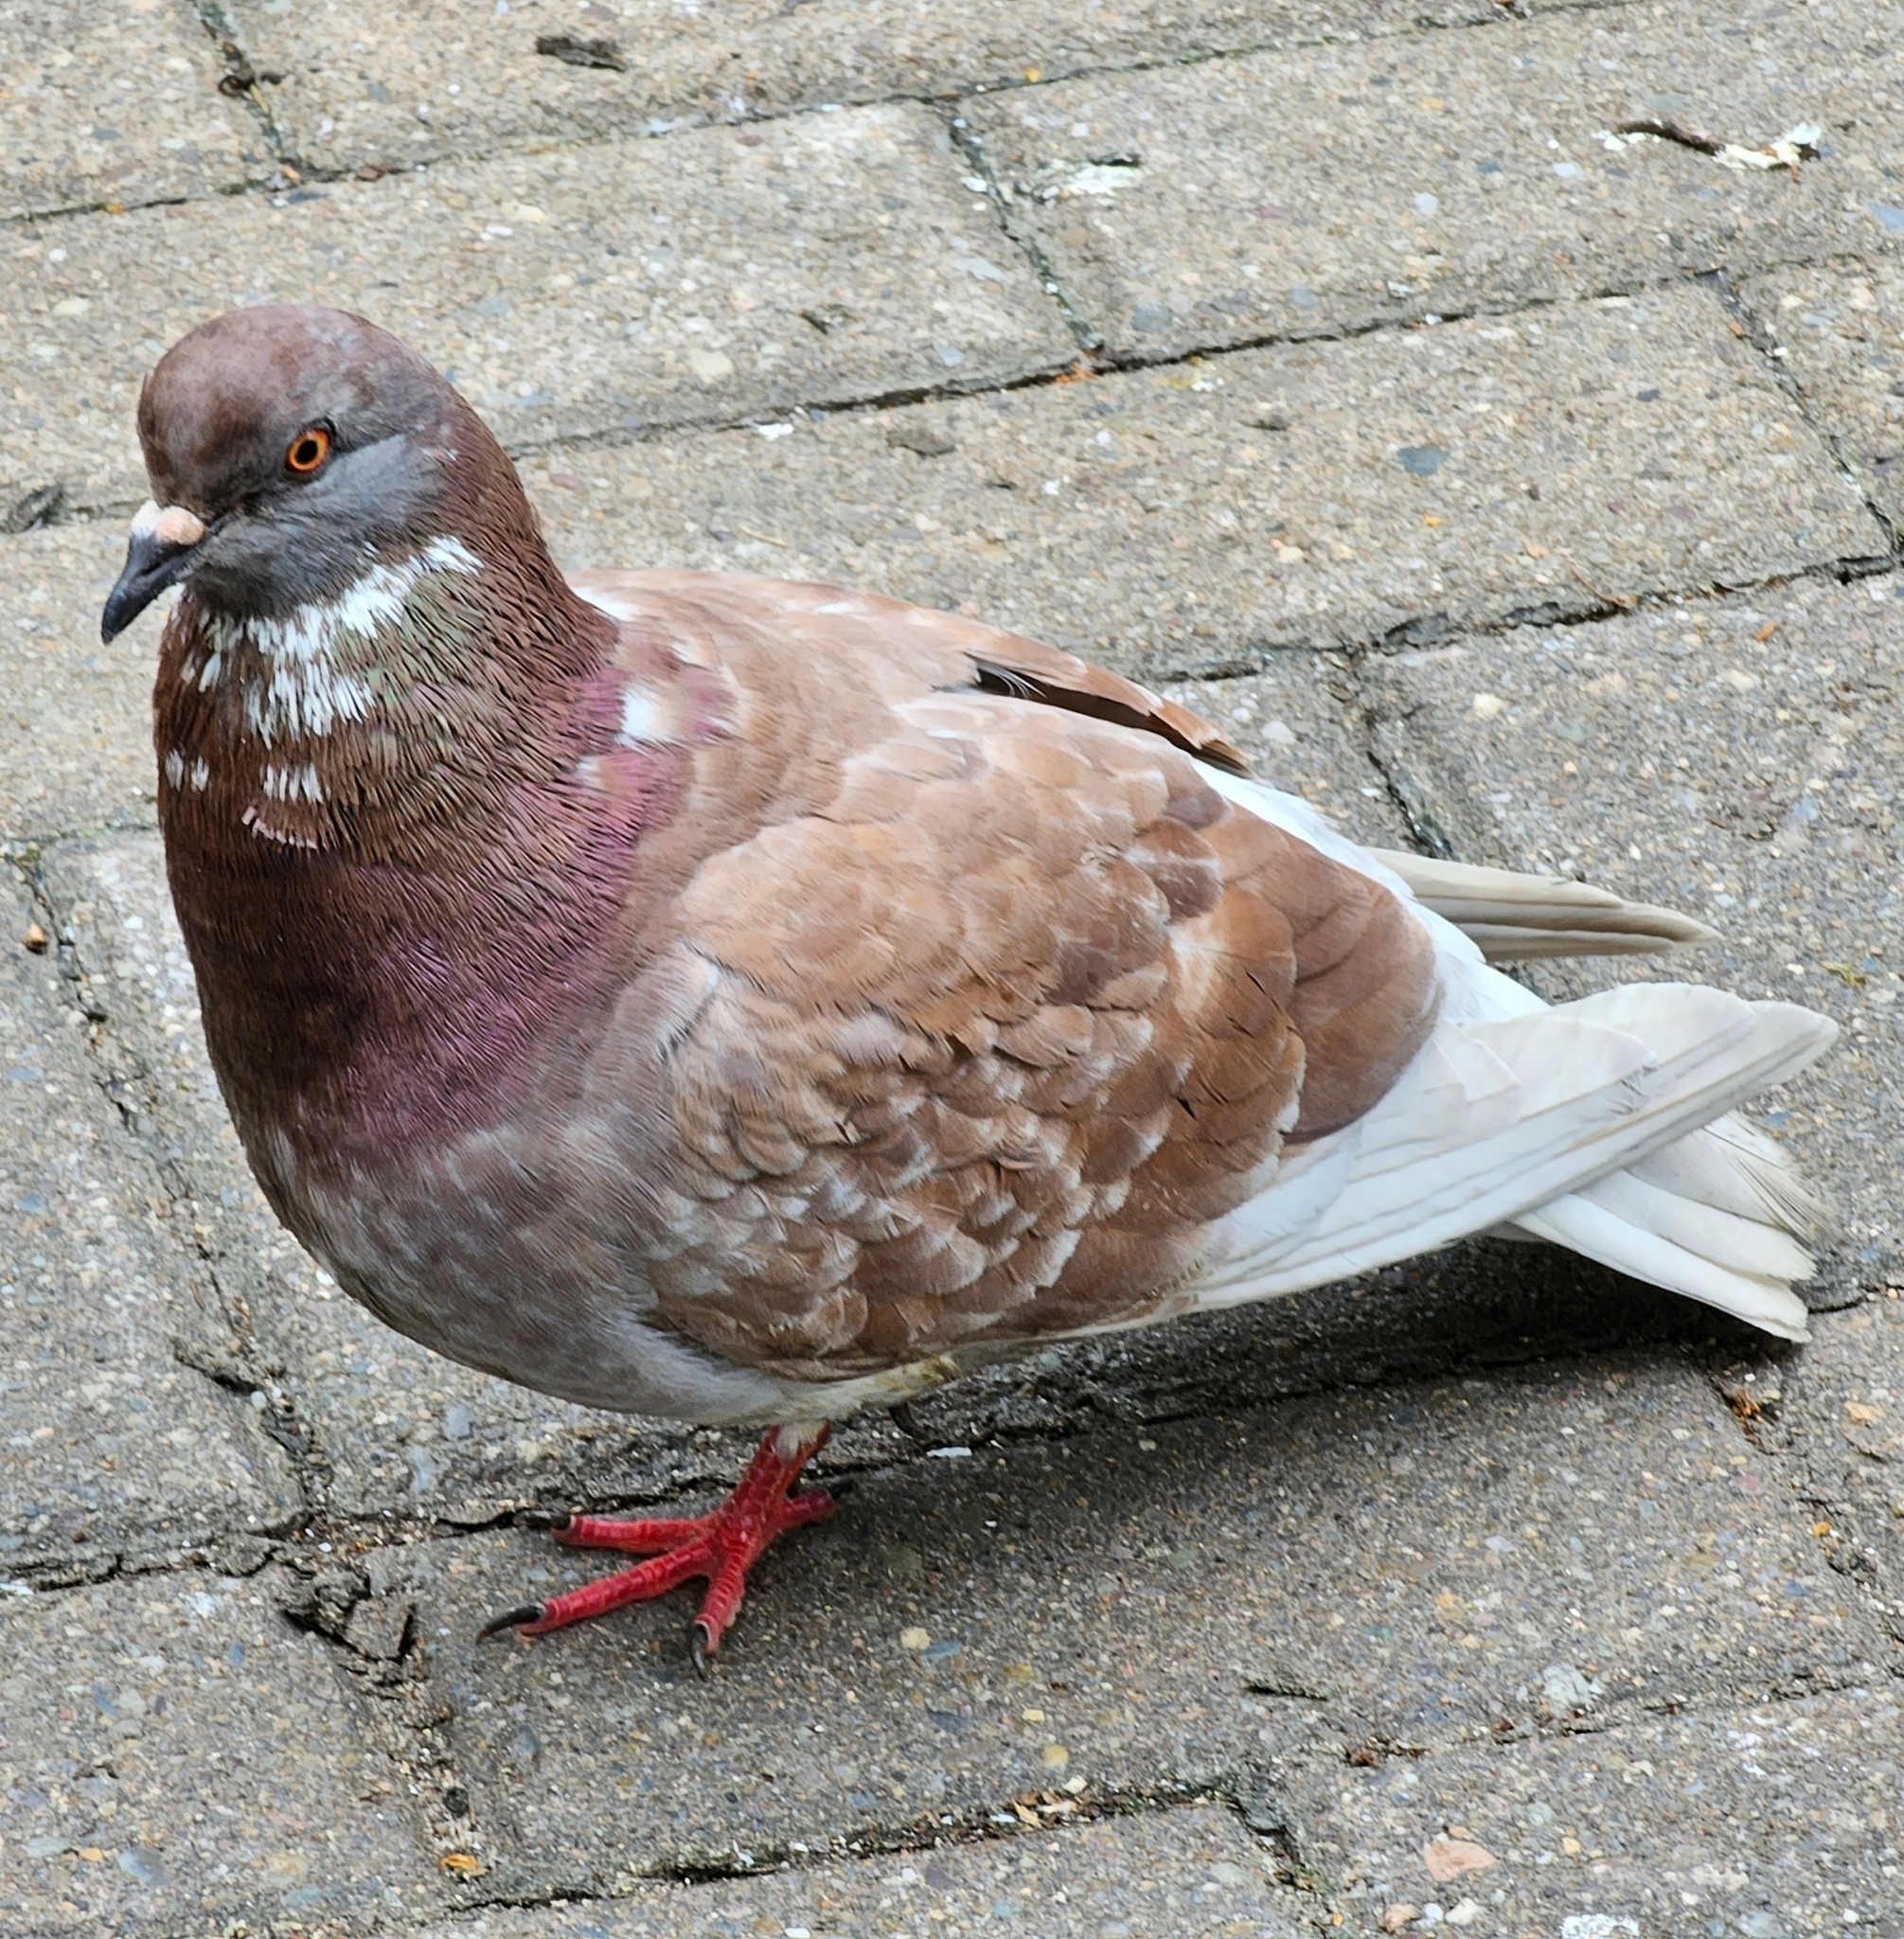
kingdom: Animalia
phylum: Chordata
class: Aves
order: Columbiformes
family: Columbidae
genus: Columba
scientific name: Columba livia
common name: Rock pigeon
